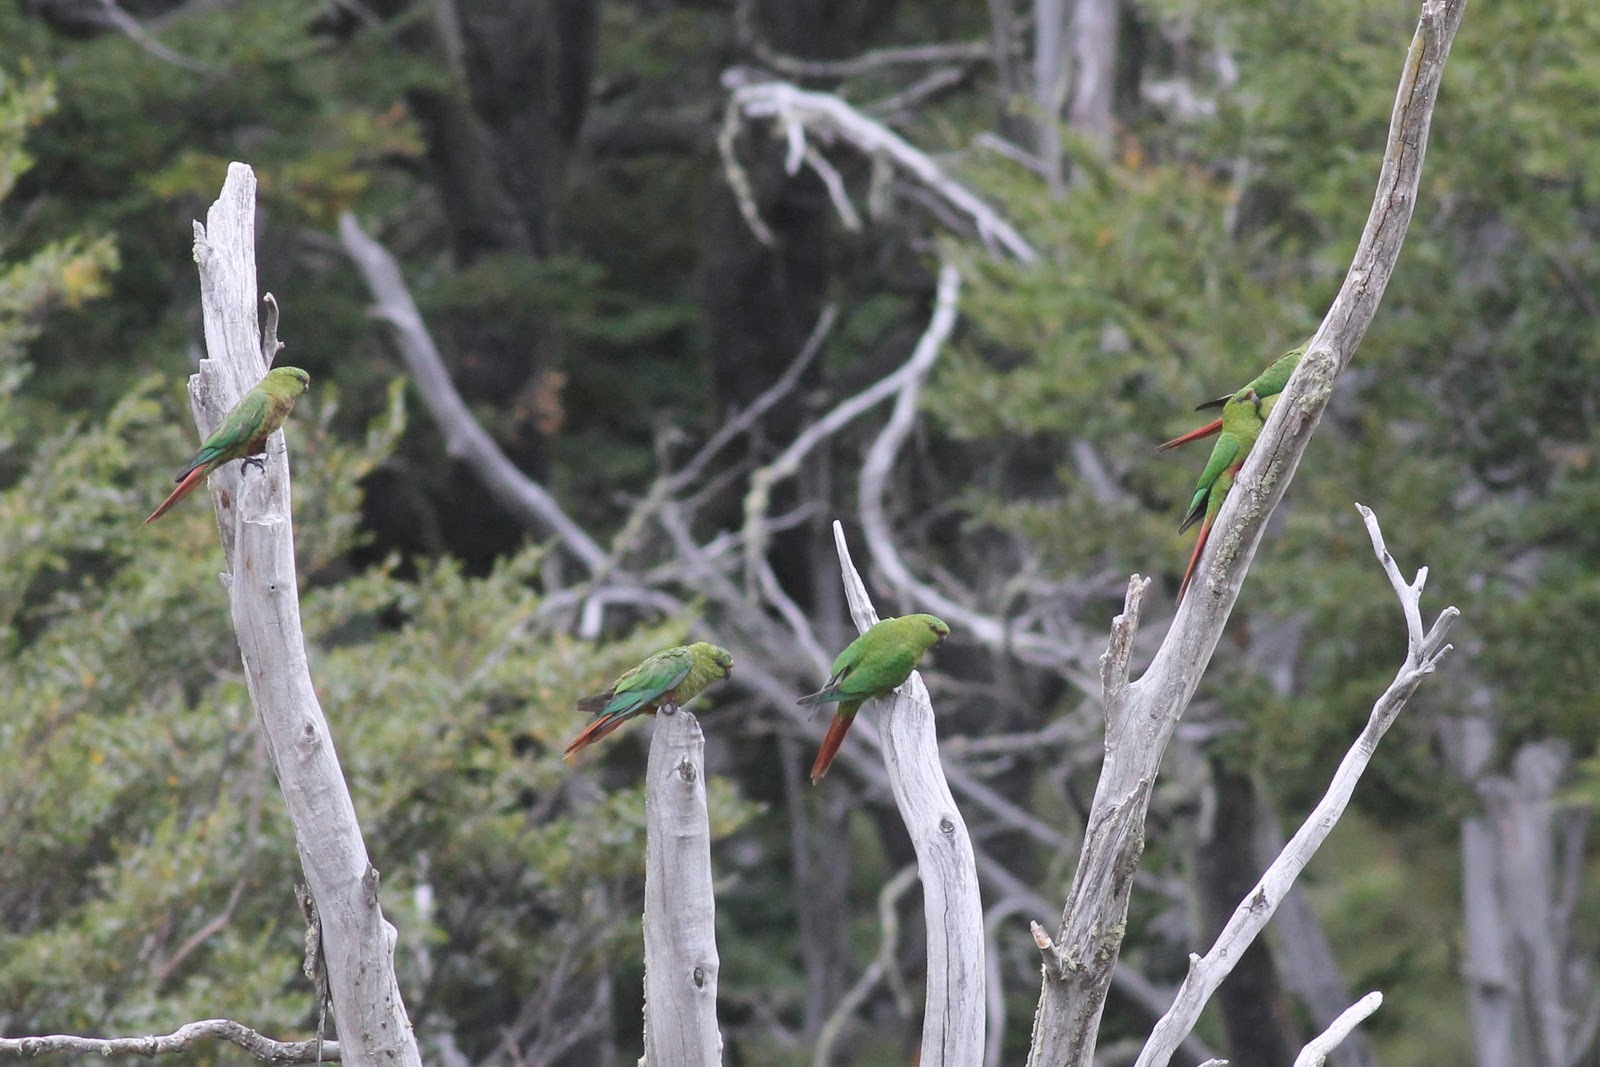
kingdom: Animalia
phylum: Chordata
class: Aves
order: Psittaciformes
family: Psittacidae
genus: Enicognathus
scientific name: Enicognathus ferrugineus
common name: Austral parakeet
